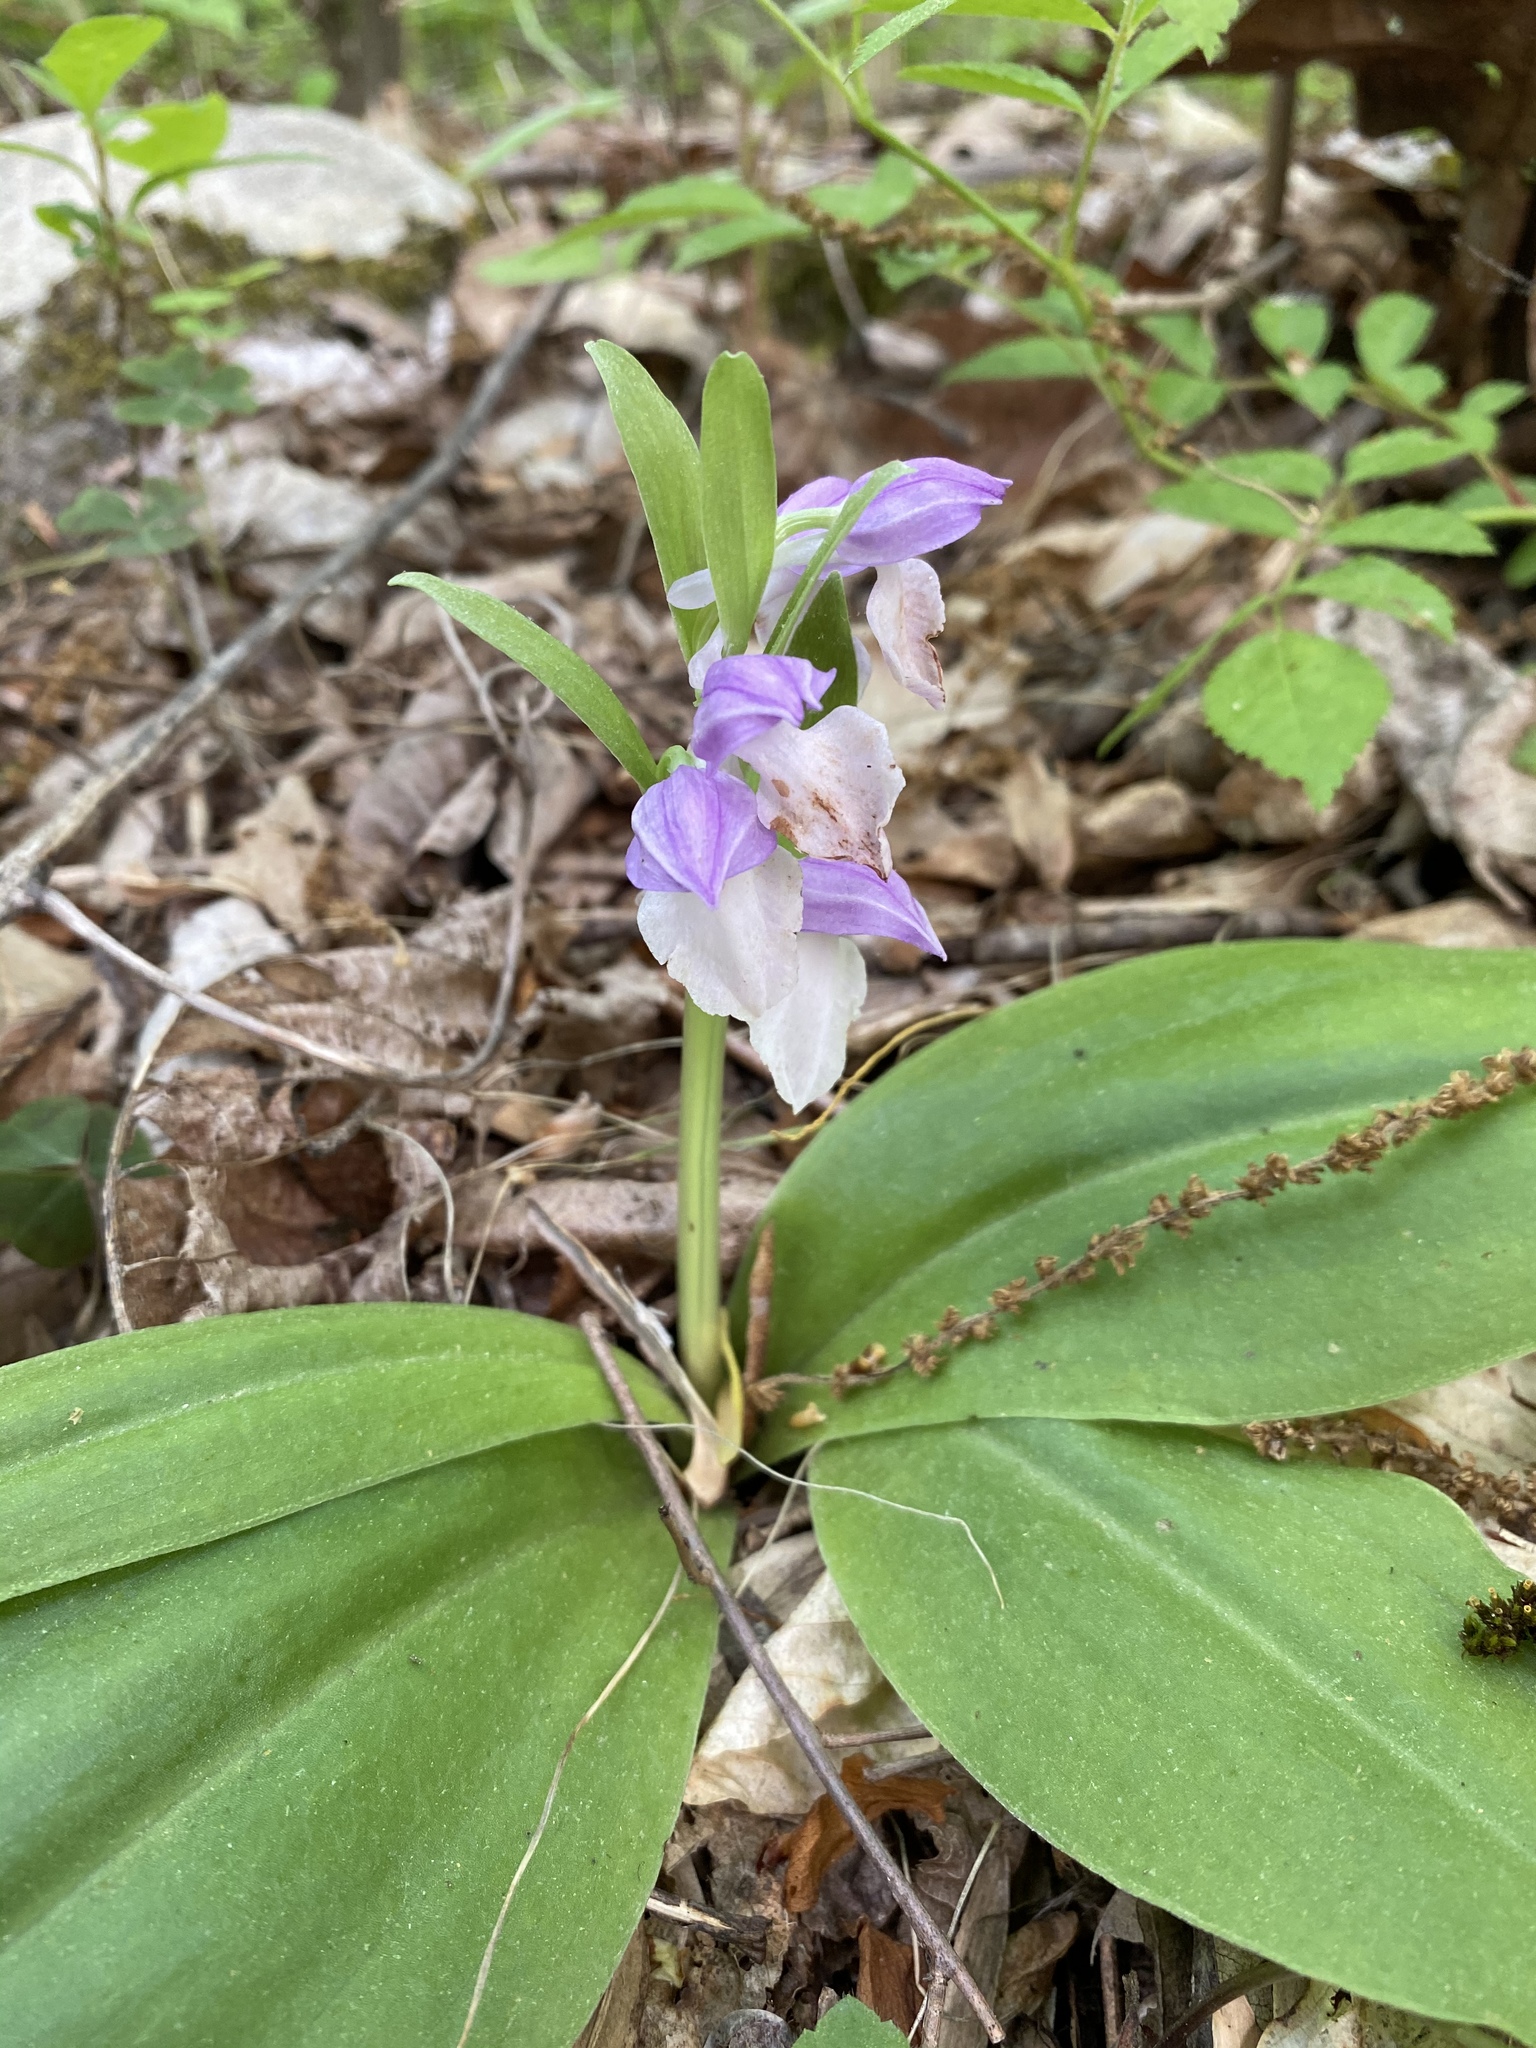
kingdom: Plantae
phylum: Tracheophyta
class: Liliopsida
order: Asparagales
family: Orchidaceae
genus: Galearis
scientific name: Galearis spectabilis
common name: Purple-hooded orchis
